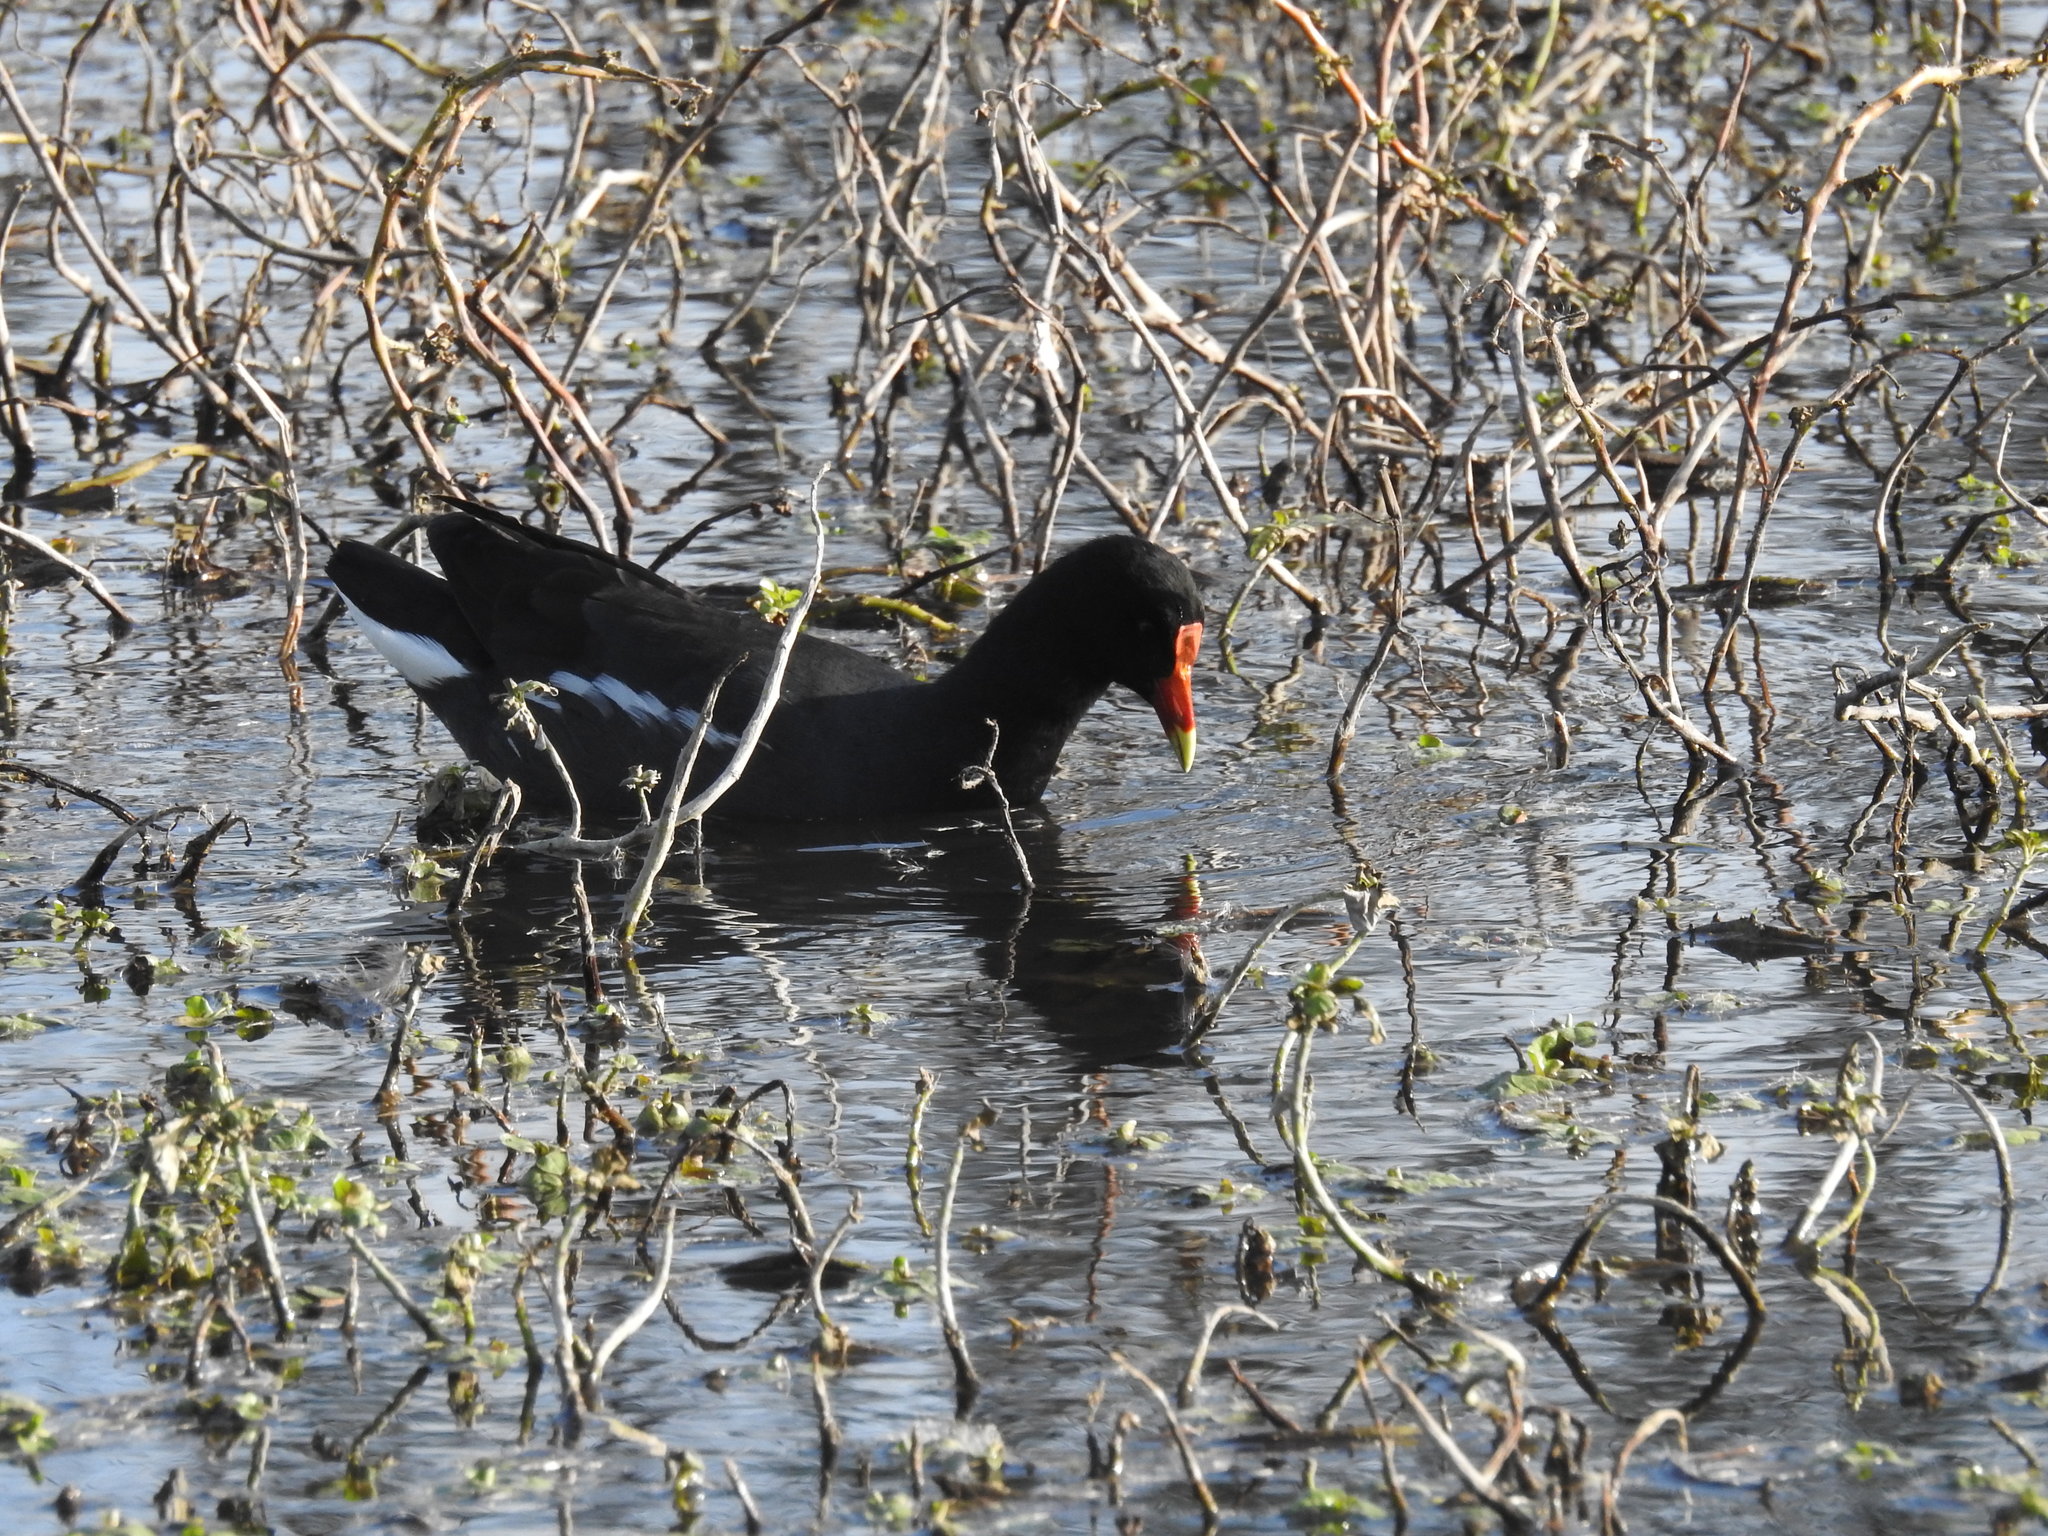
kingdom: Animalia
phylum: Chordata
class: Aves
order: Gruiformes
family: Rallidae
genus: Gallinula
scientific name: Gallinula chloropus
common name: Common moorhen
